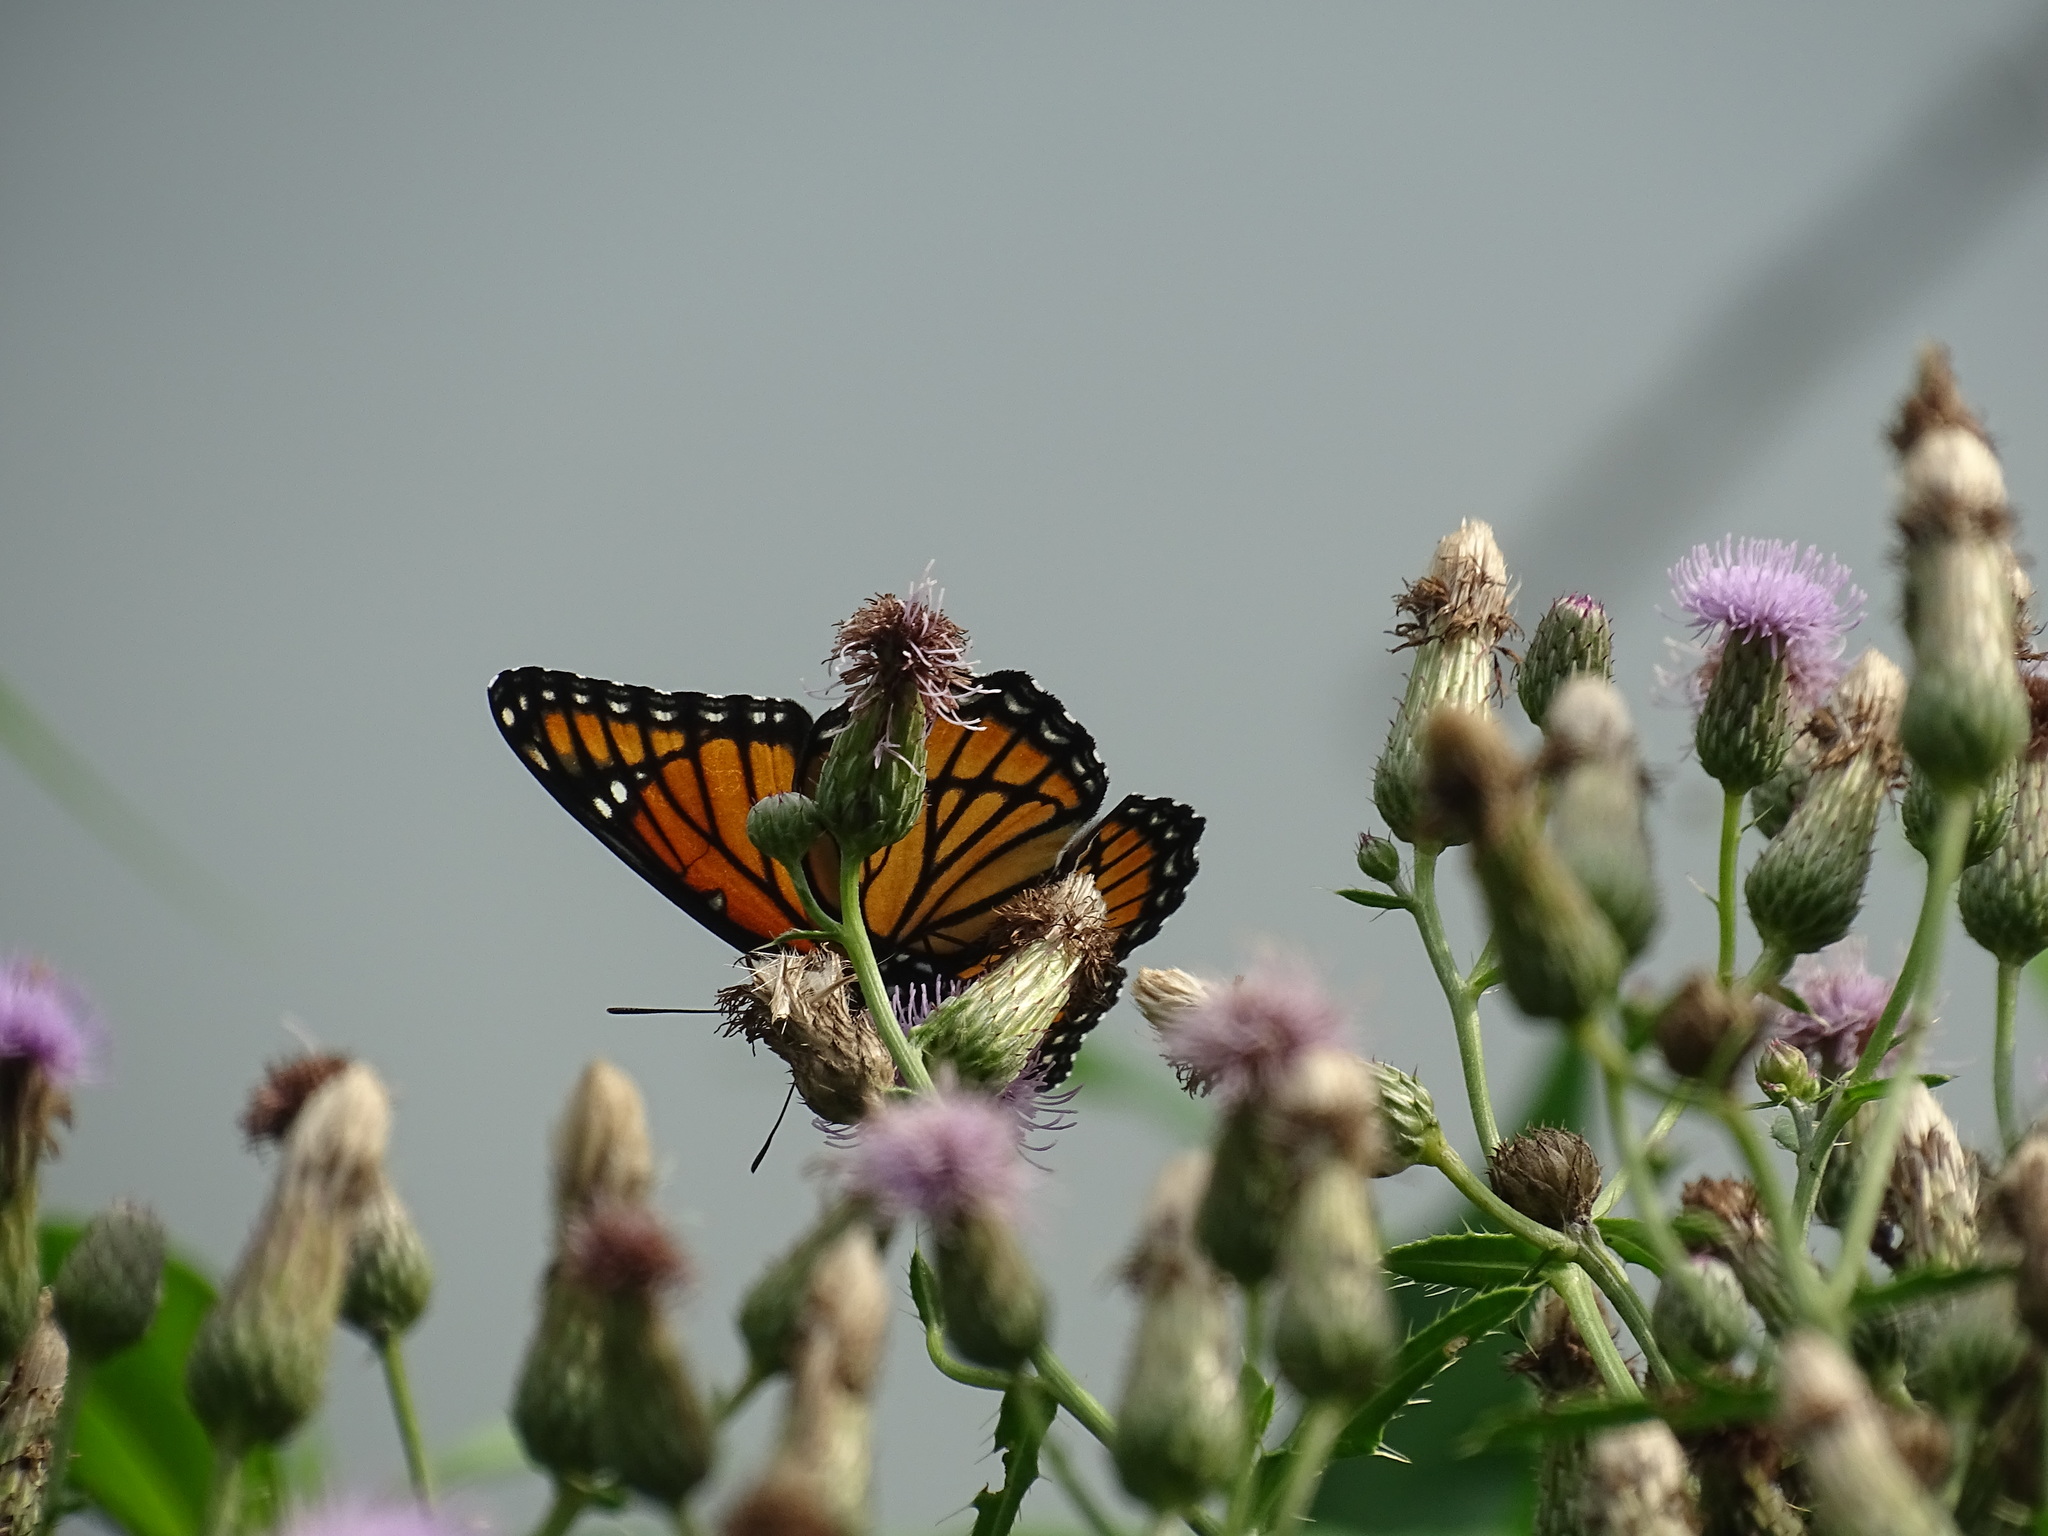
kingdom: Animalia
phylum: Arthropoda
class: Insecta
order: Lepidoptera
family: Nymphalidae
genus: Limenitis
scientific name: Limenitis archippus
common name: Viceroy
